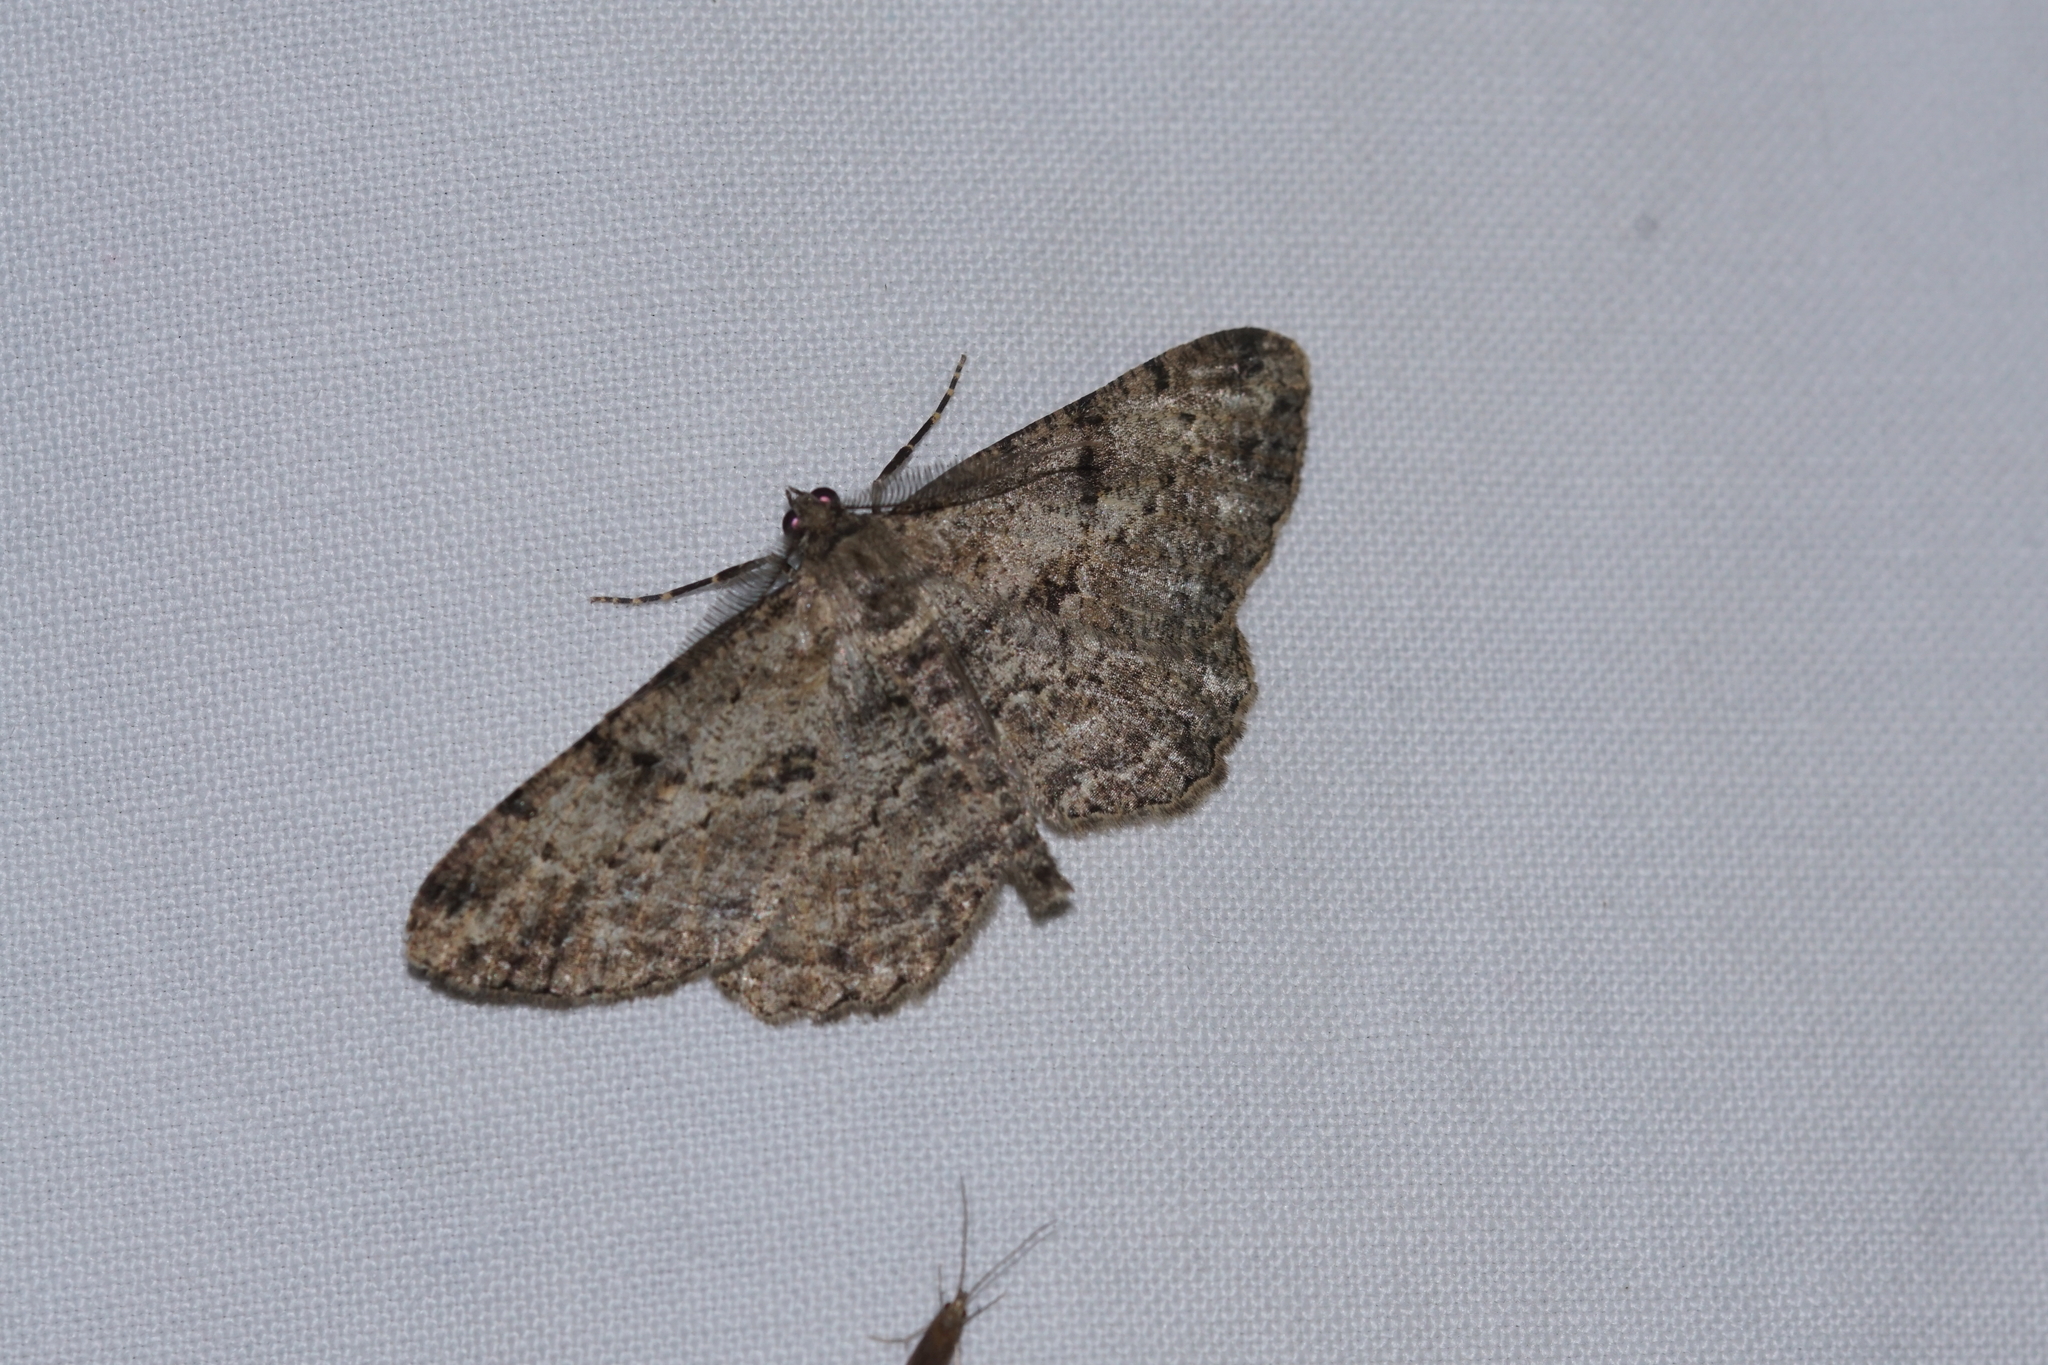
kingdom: Animalia
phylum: Arthropoda
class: Insecta
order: Lepidoptera
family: Geometridae
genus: Peribatodes
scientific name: Peribatodes rhomboidaria
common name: Willow beauty
